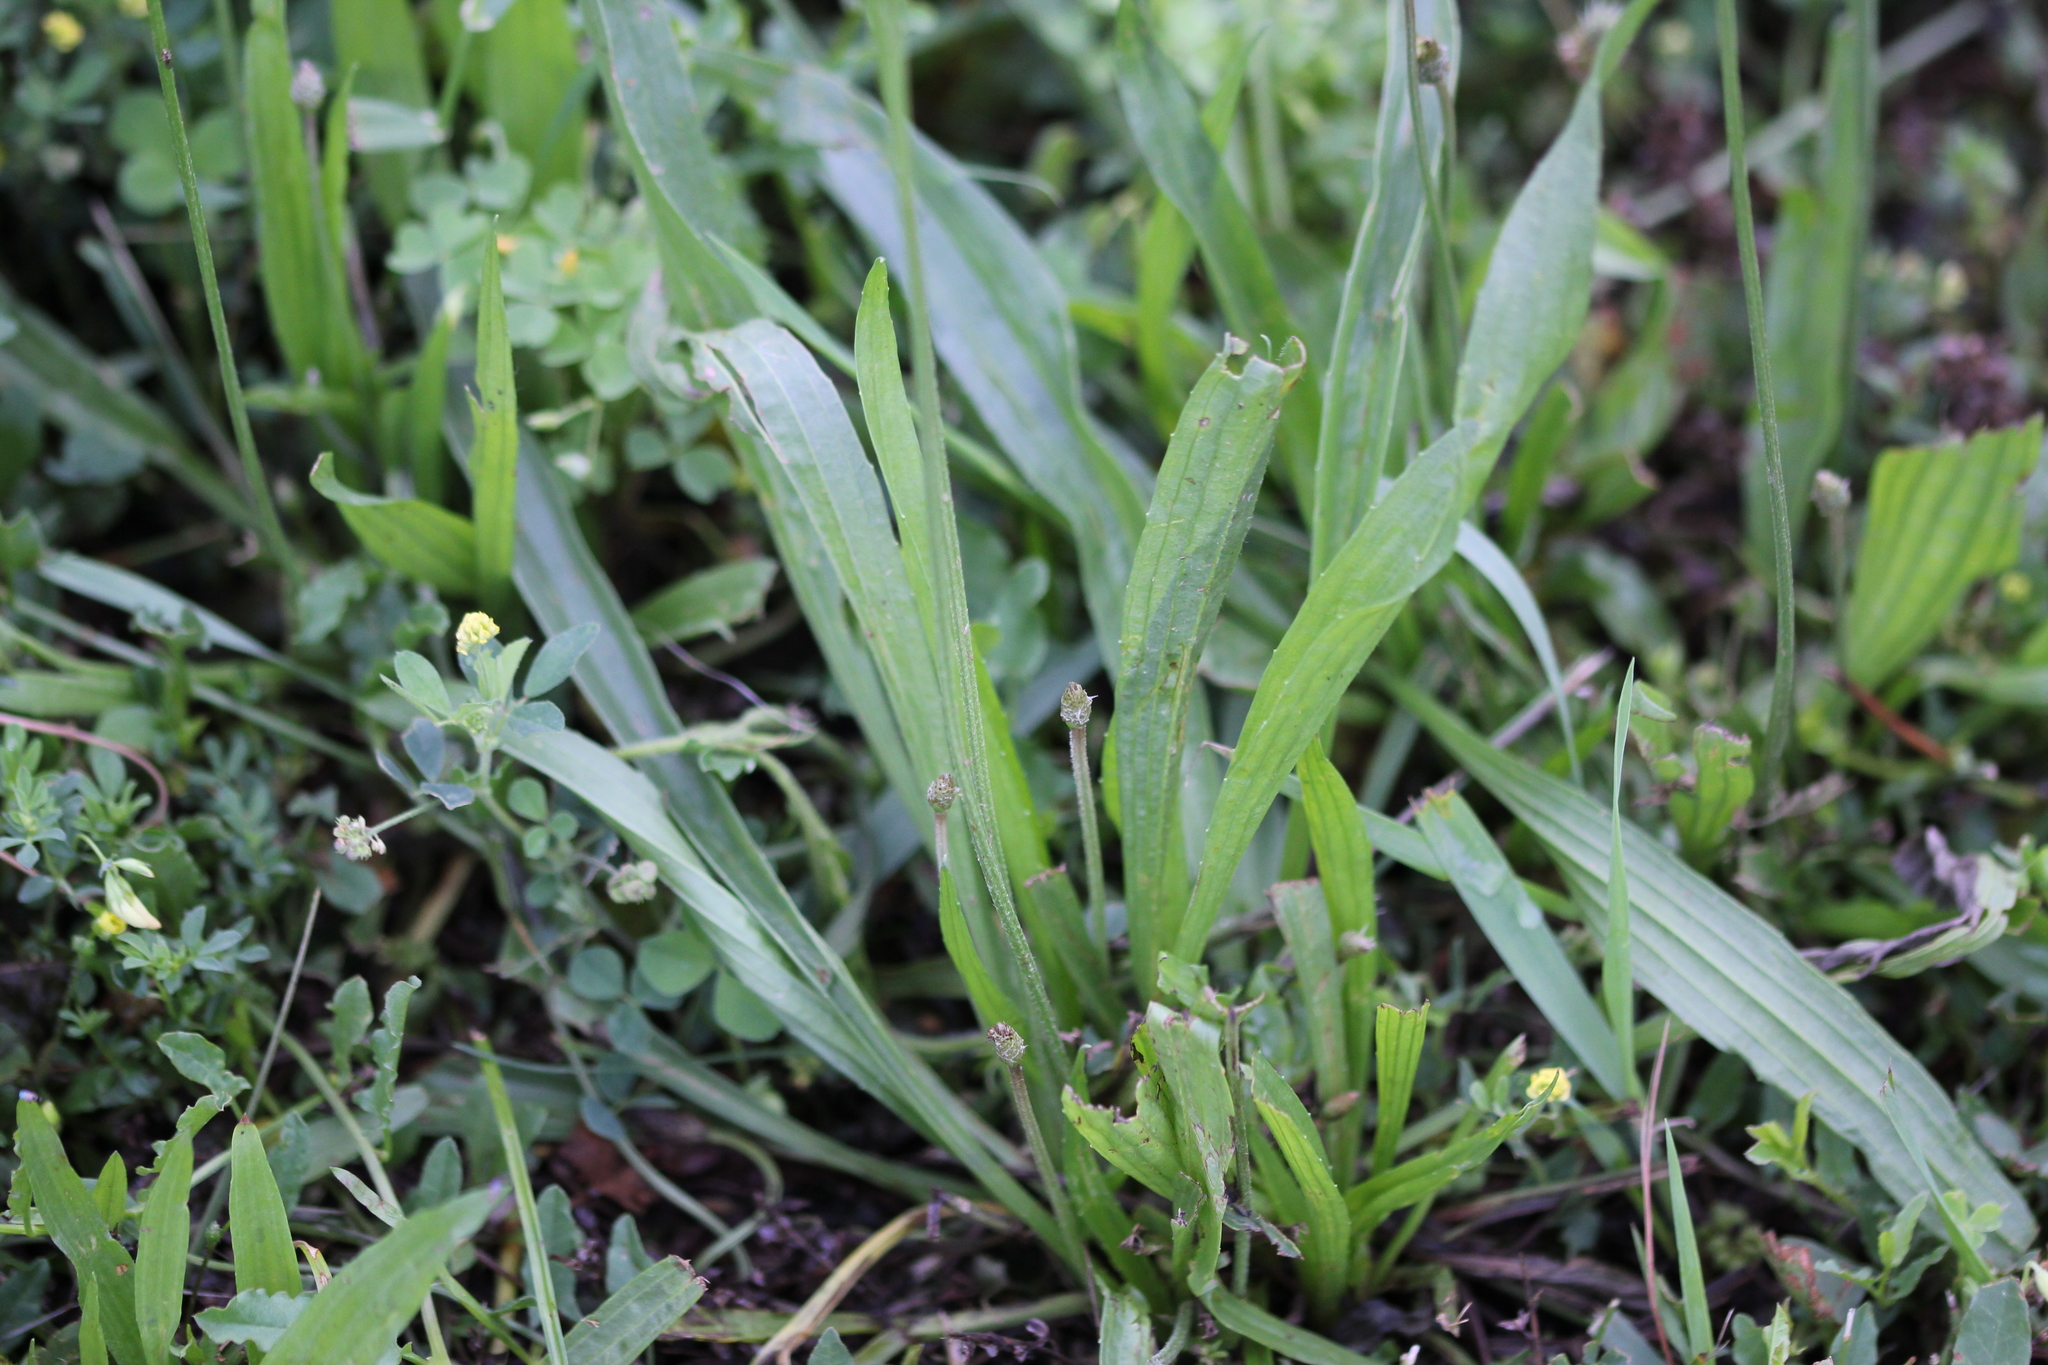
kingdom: Plantae
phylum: Tracheophyta
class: Magnoliopsida
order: Lamiales
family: Plantaginaceae
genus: Plantago
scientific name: Plantago lanceolata
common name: Ribwort plantain
